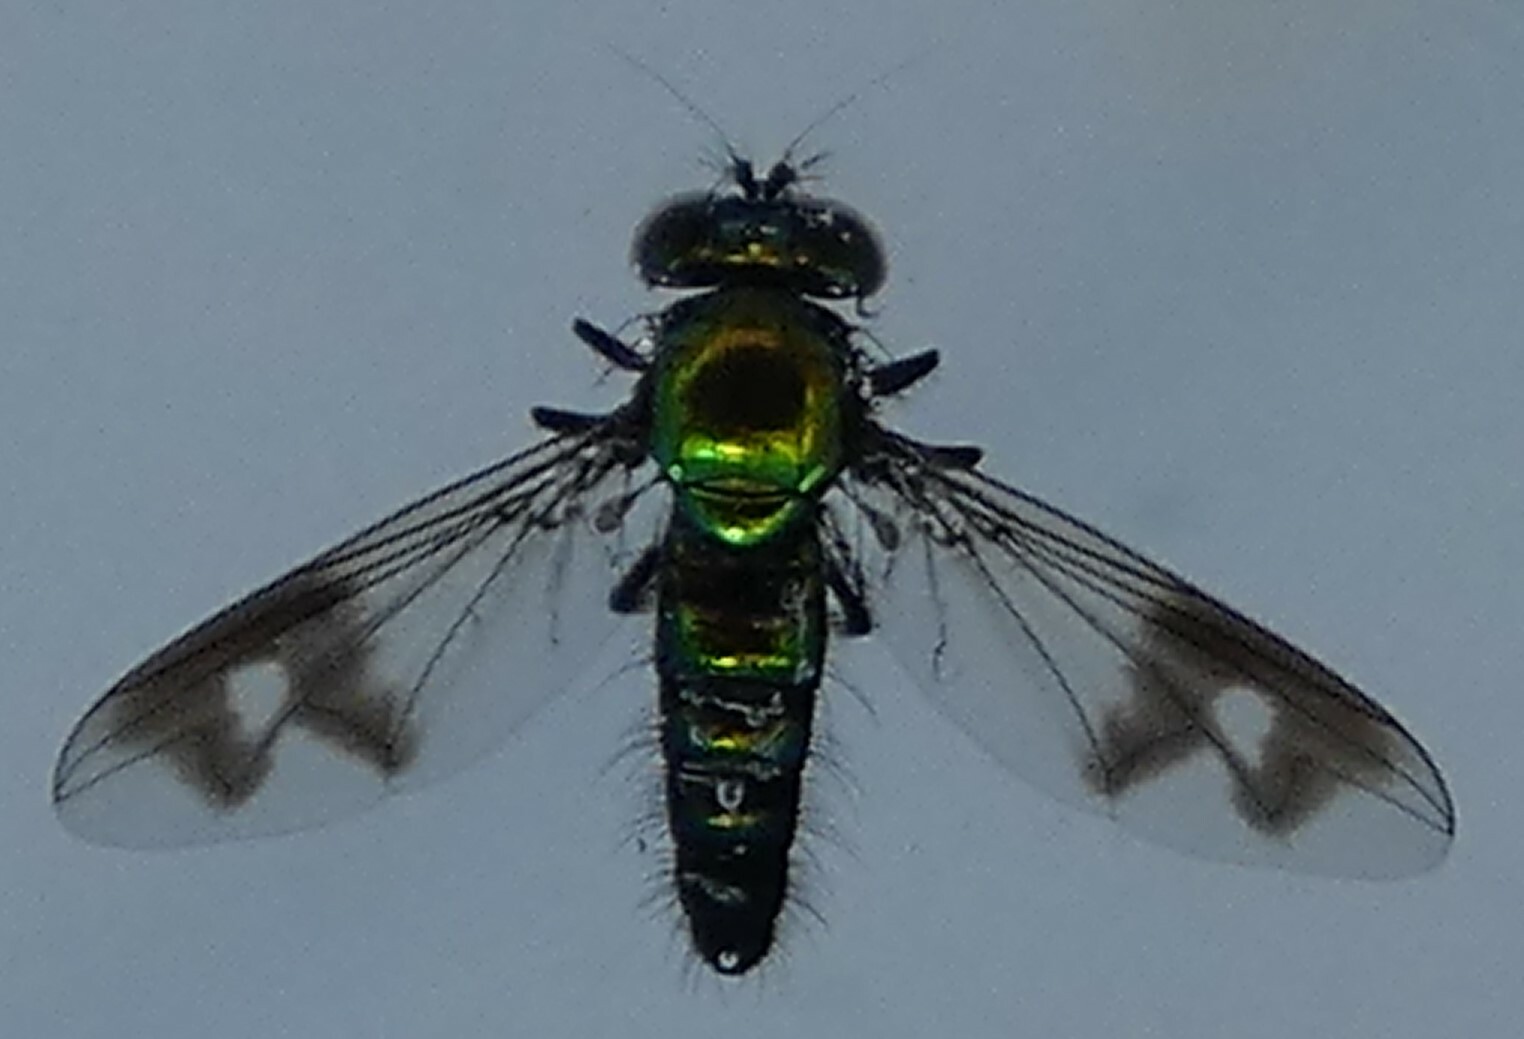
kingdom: Animalia
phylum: Arthropoda
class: Insecta
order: Diptera
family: Dolichopodidae
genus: Condylostylus
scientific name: Condylostylus patibulatus
